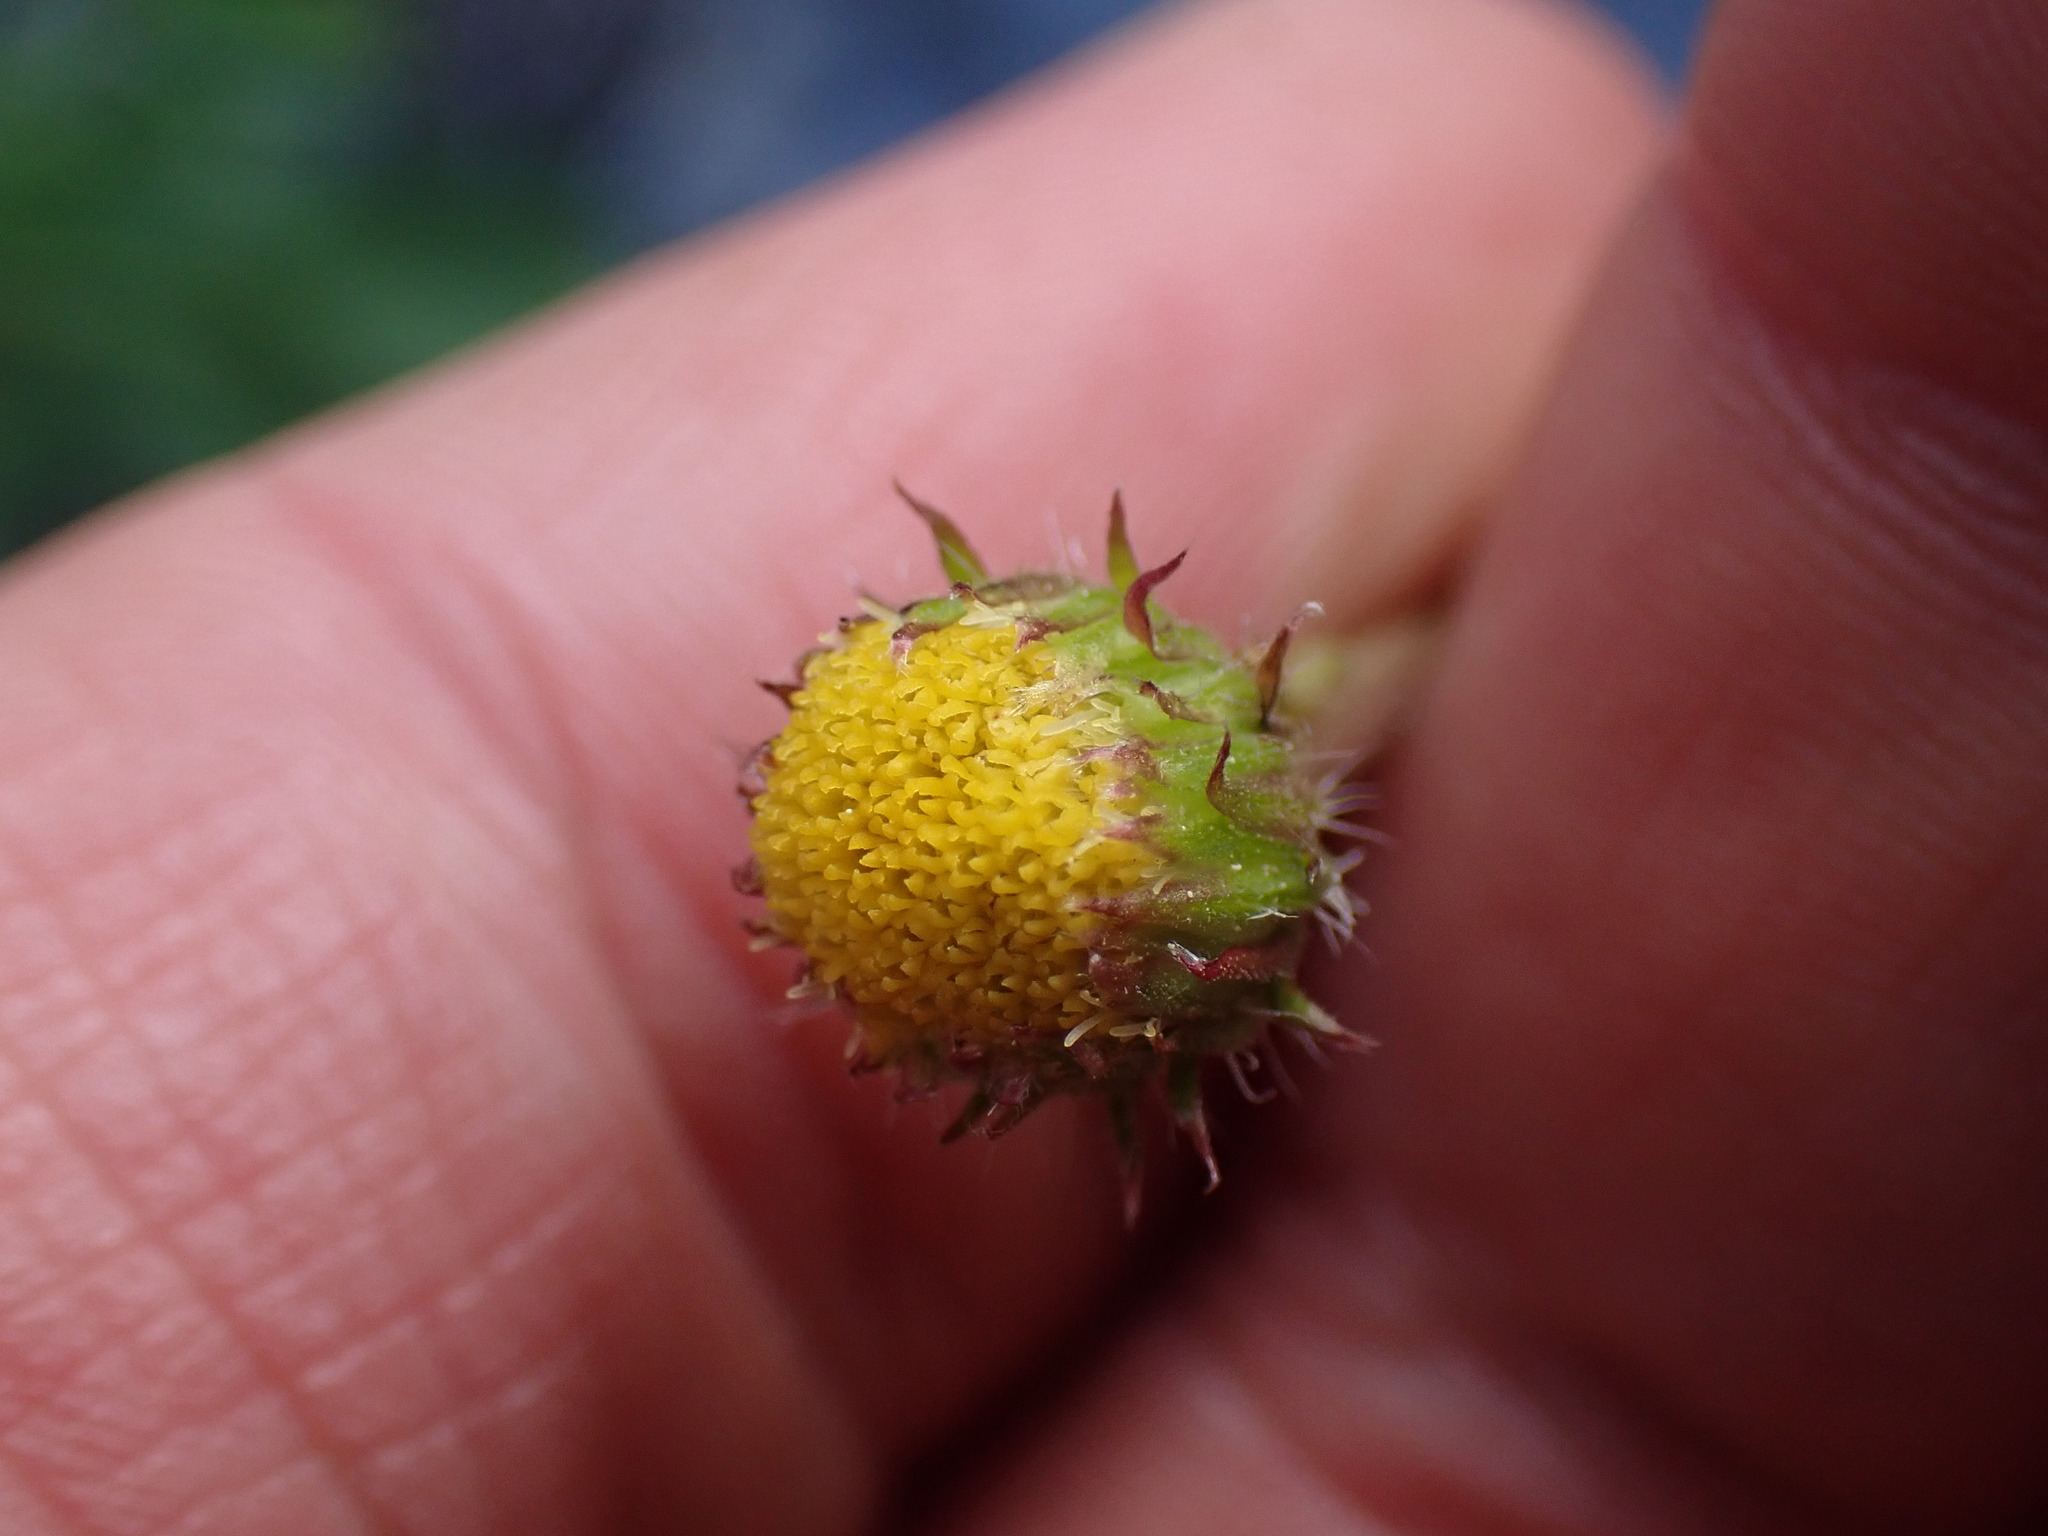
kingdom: Plantae
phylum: Tracheophyta
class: Magnoliopsida
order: Asterales
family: Asteraceae
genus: Erigeron
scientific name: Erigeron compositus
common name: Dwarf mountain fleabane
